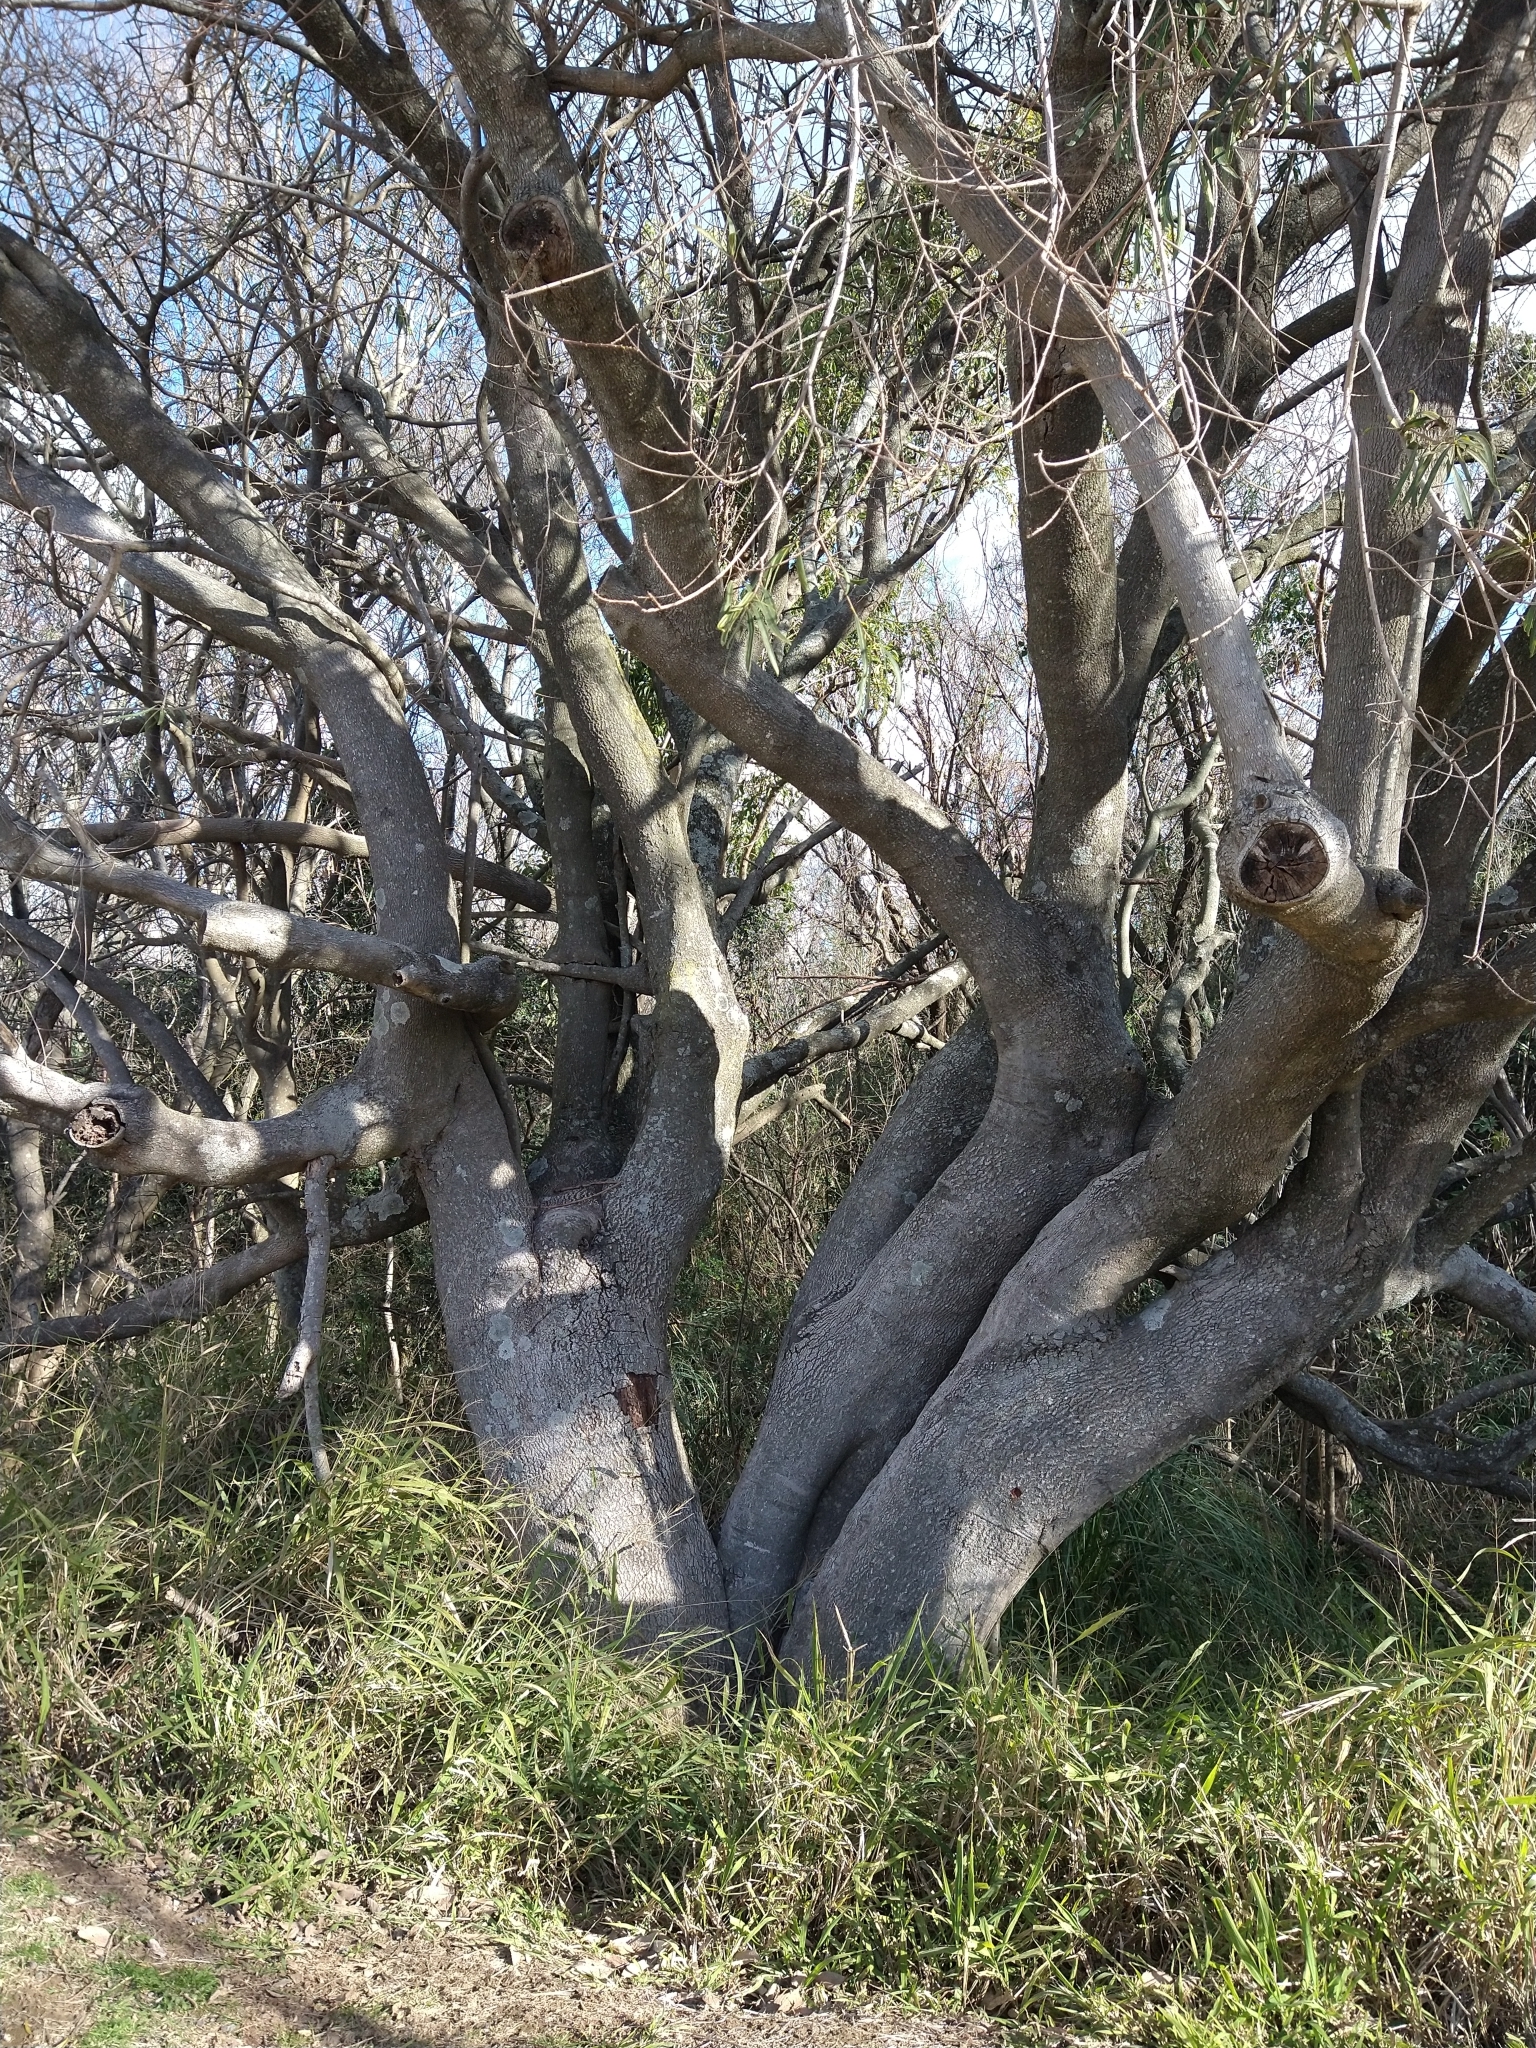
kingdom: Plantae
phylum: Tracheophyta
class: Magnoliopsida
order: Malpighiales
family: Euphorbiaceae
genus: Sapium
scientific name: Sapium haematospermum
